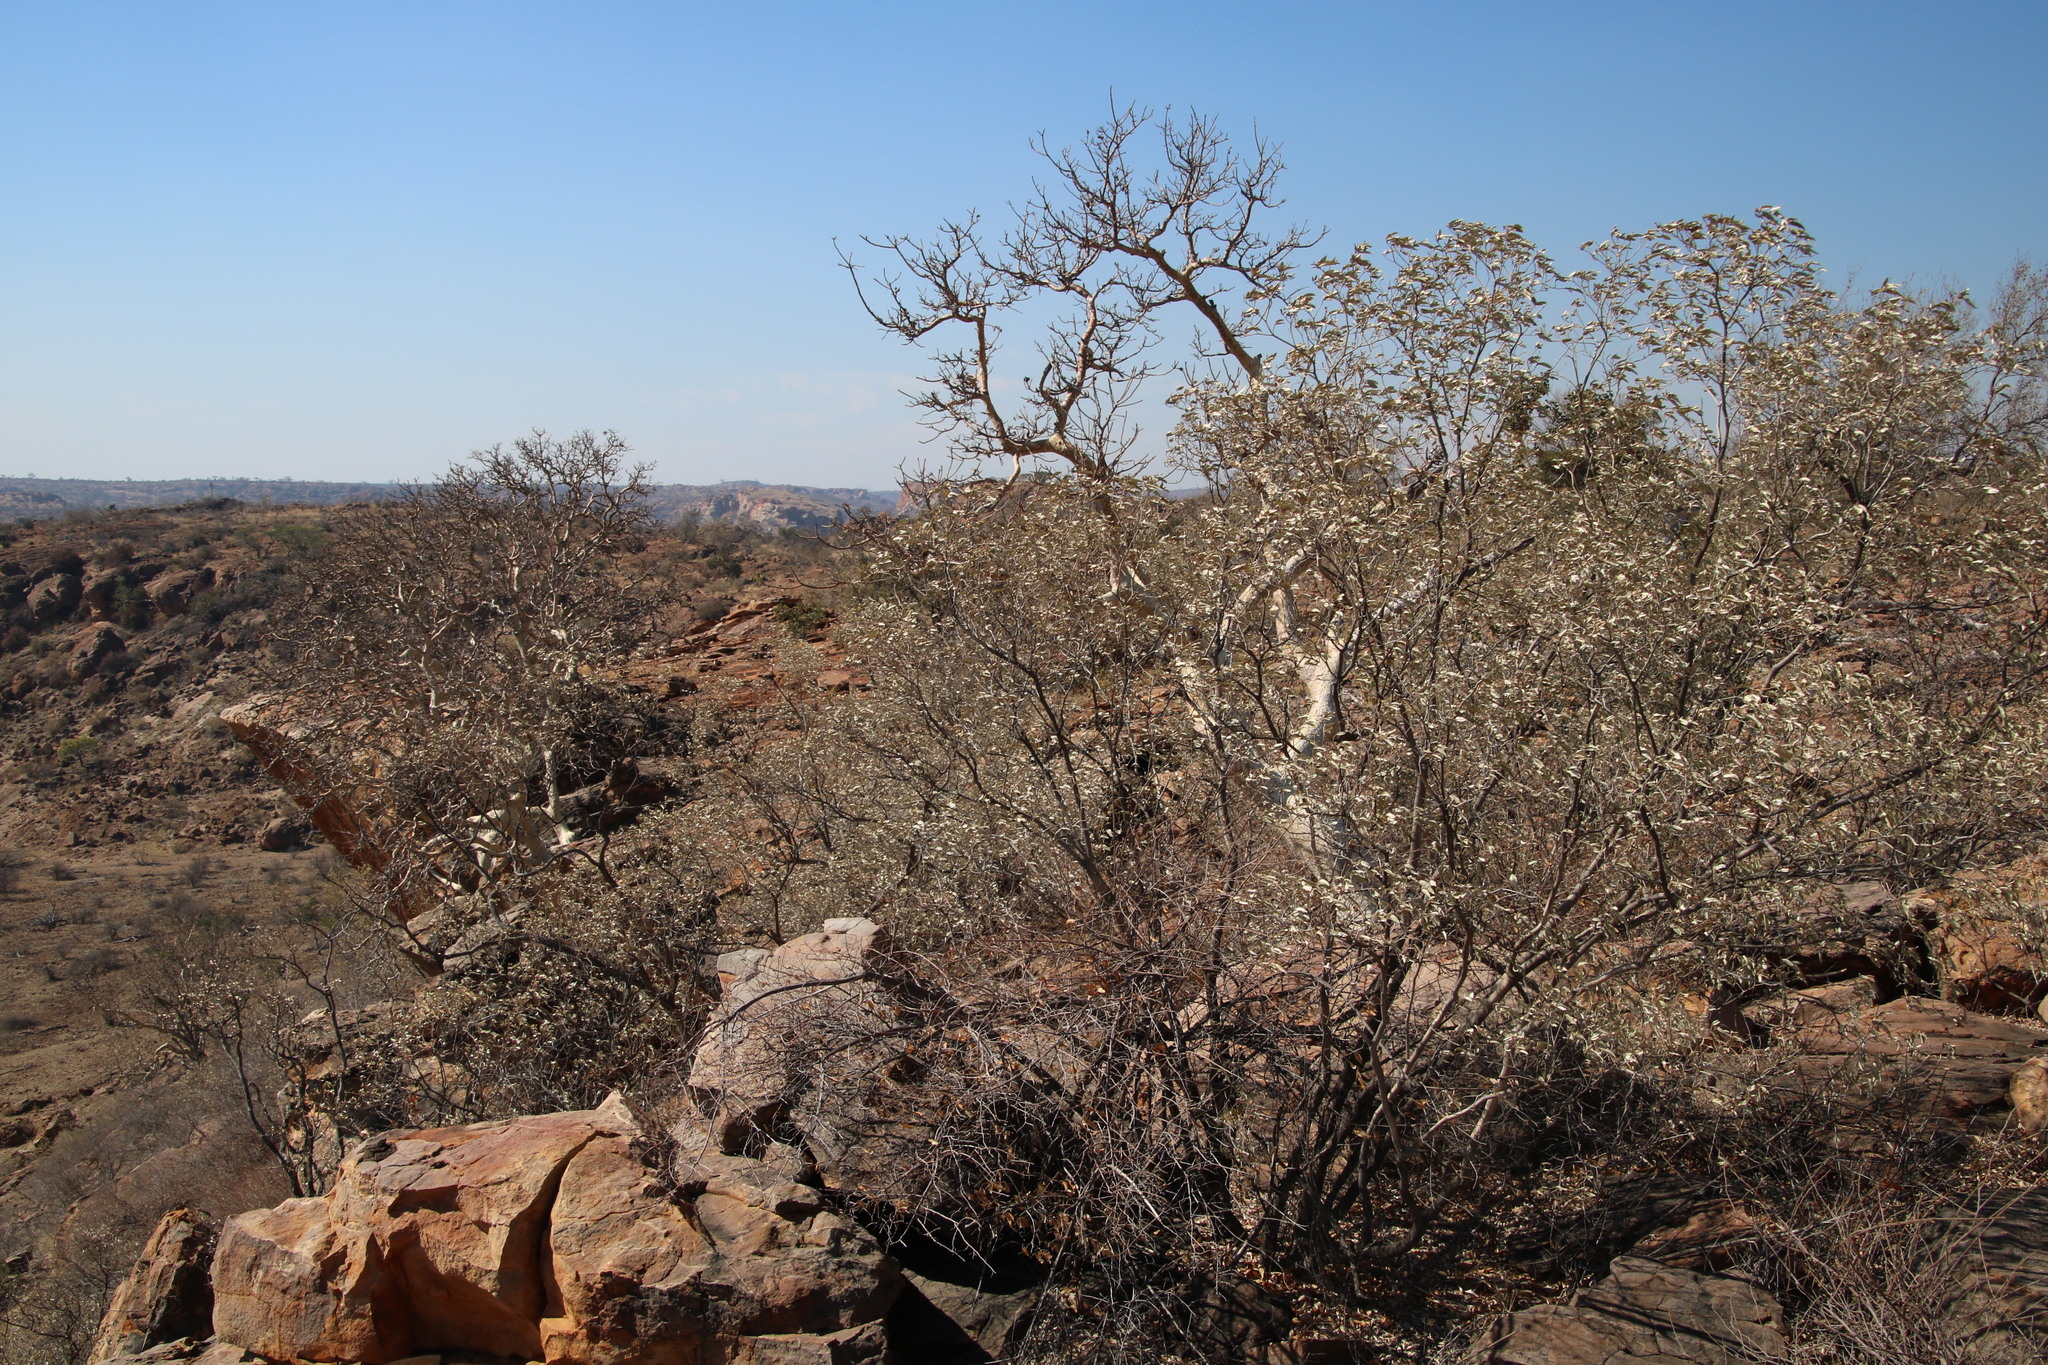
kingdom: Plantae
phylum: Tracheophyta
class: Magnoliopsida
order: Rosales
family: Moraceae
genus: Ficus
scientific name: Ficus tettensis
